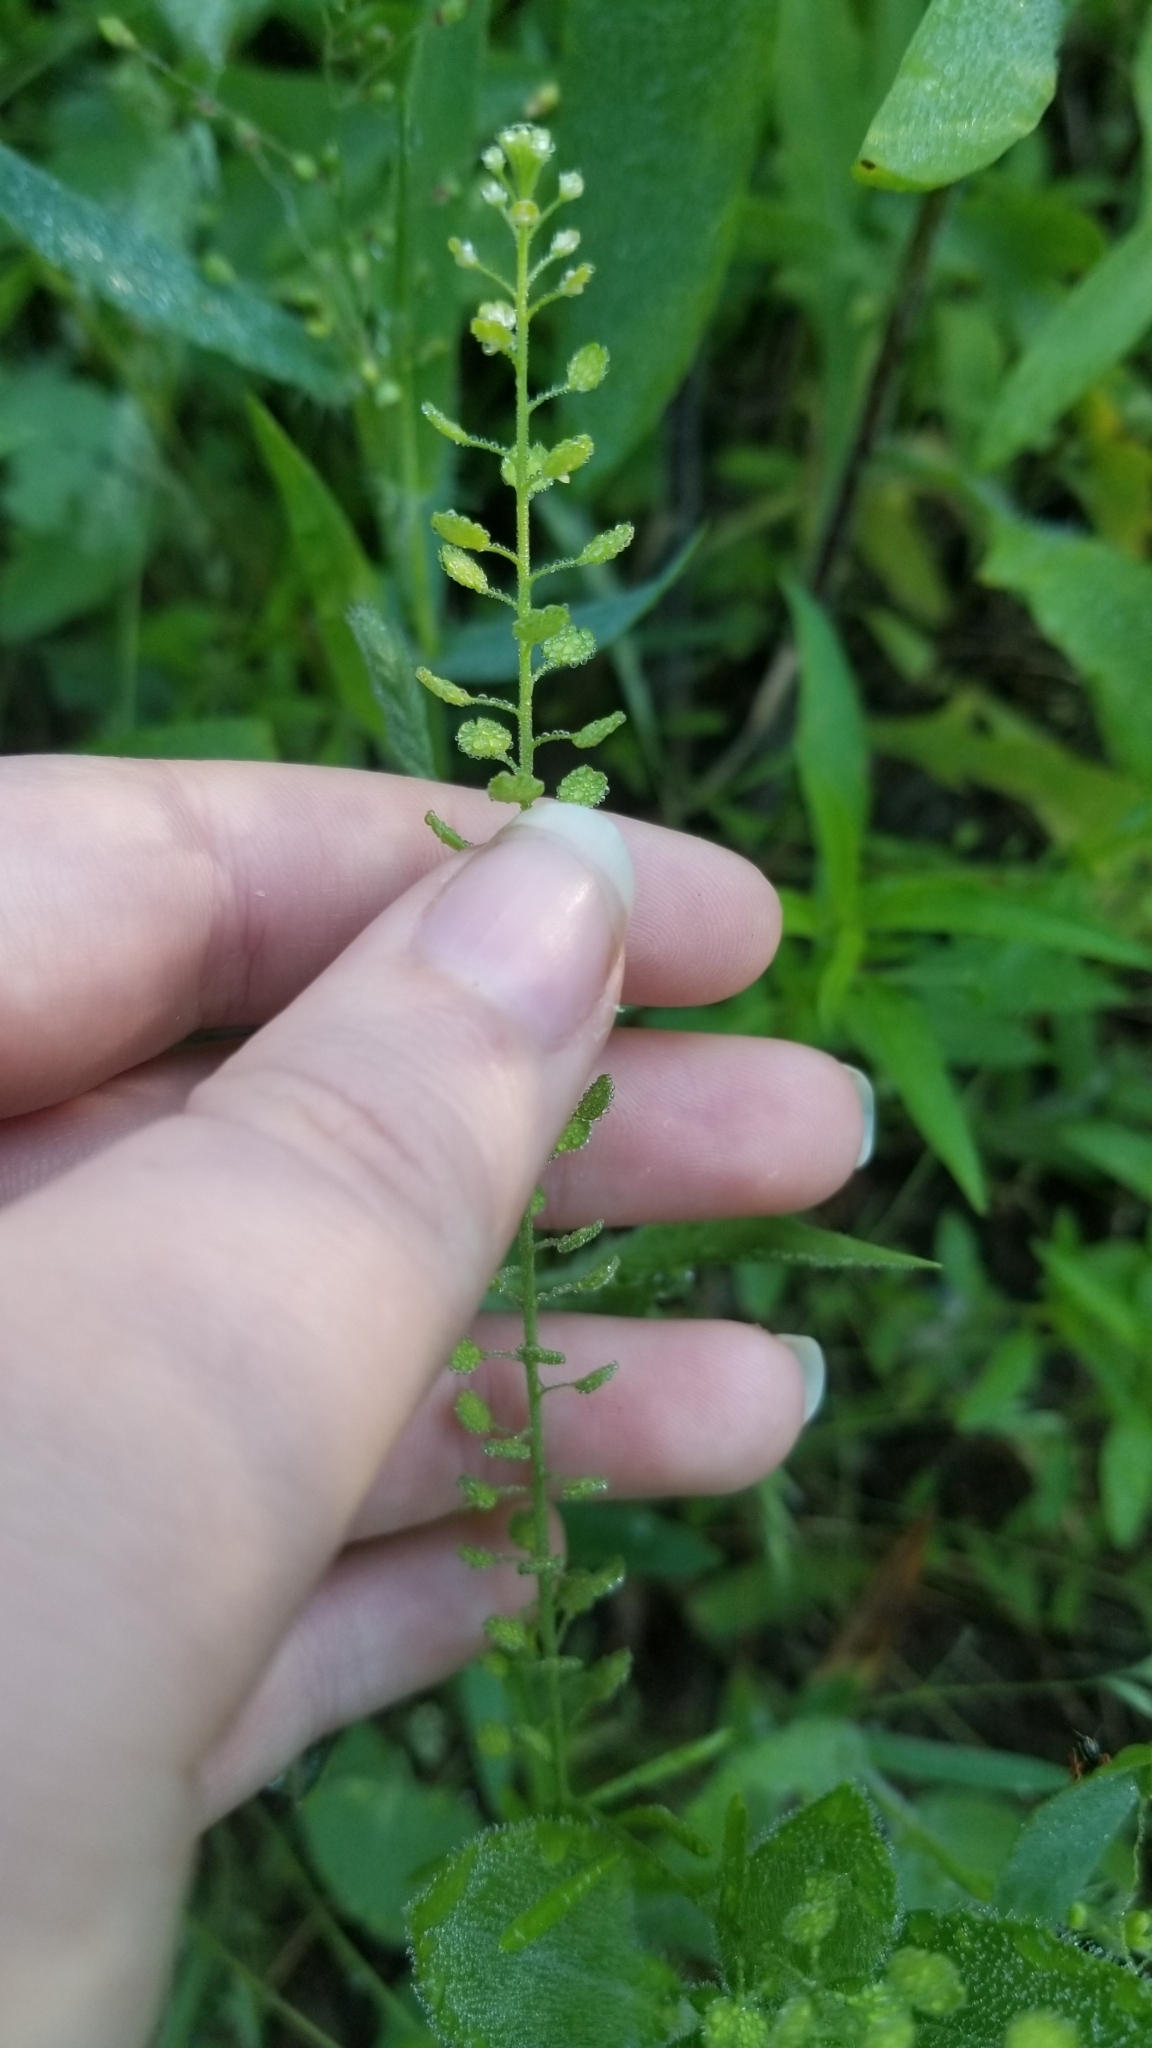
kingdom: Plantae
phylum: Tracheophyta
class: Magnoliopsida
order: Brassicales
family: Brassicaceae
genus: Lepidium
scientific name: Lepidium virginicum
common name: Least pepperwort
